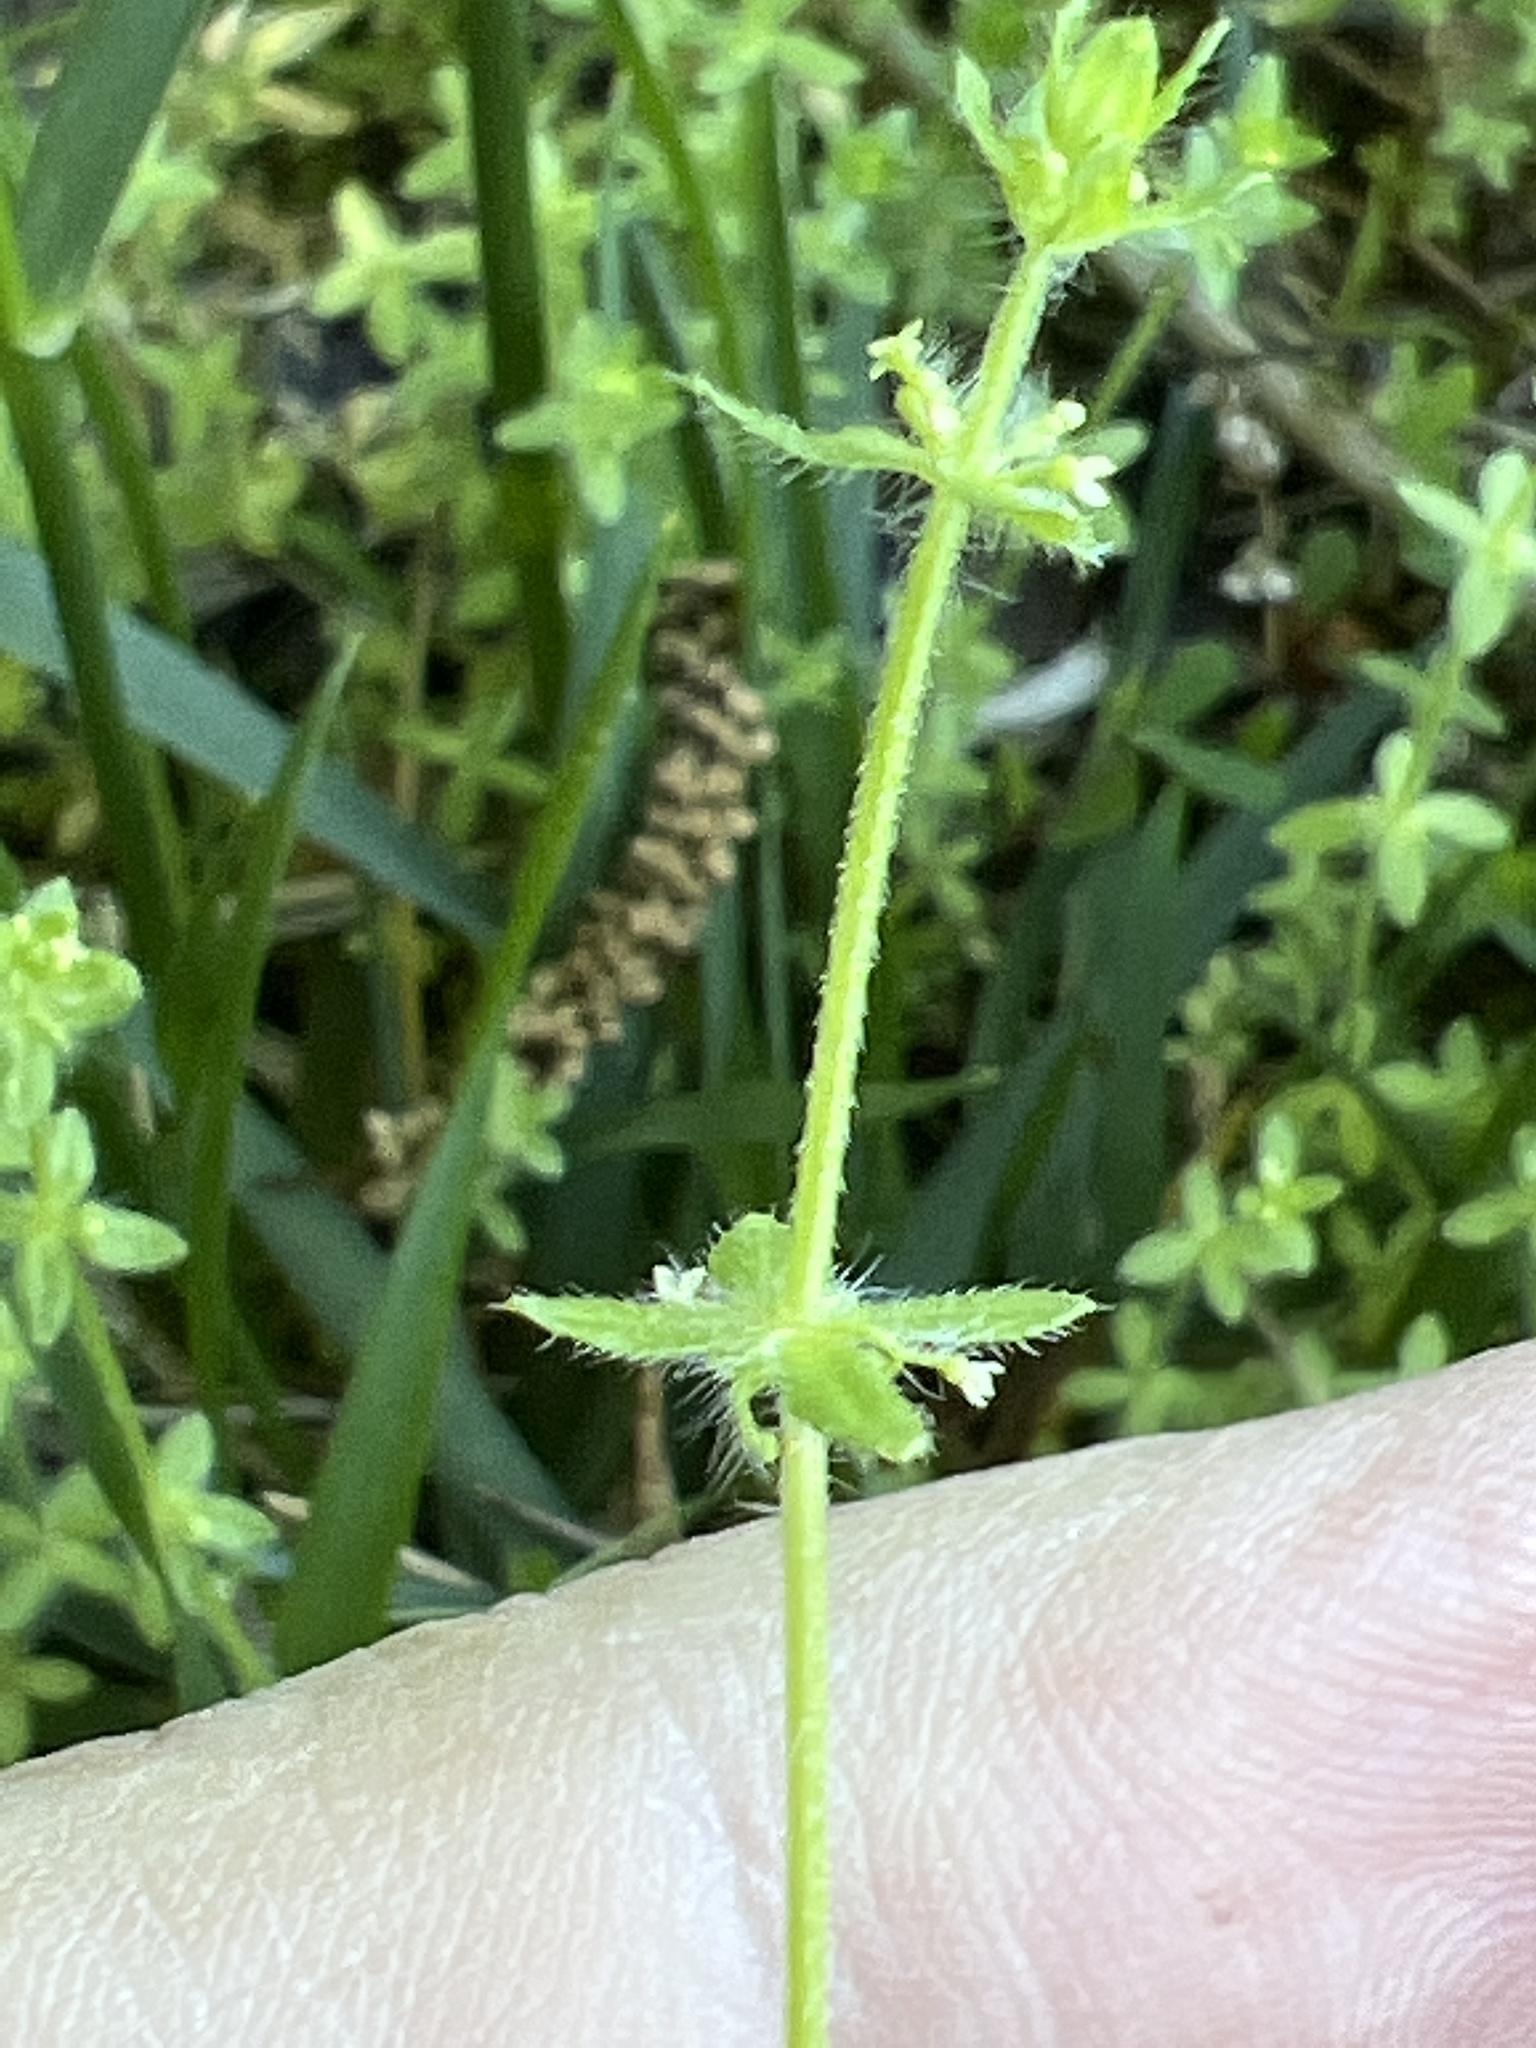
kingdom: Plantae
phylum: Tracheophyta
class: Magnoliopsida
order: Gentianales
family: Rubiaceae
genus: Cruciata
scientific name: Cruciata pedemontana
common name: Piedmont bedstraw
